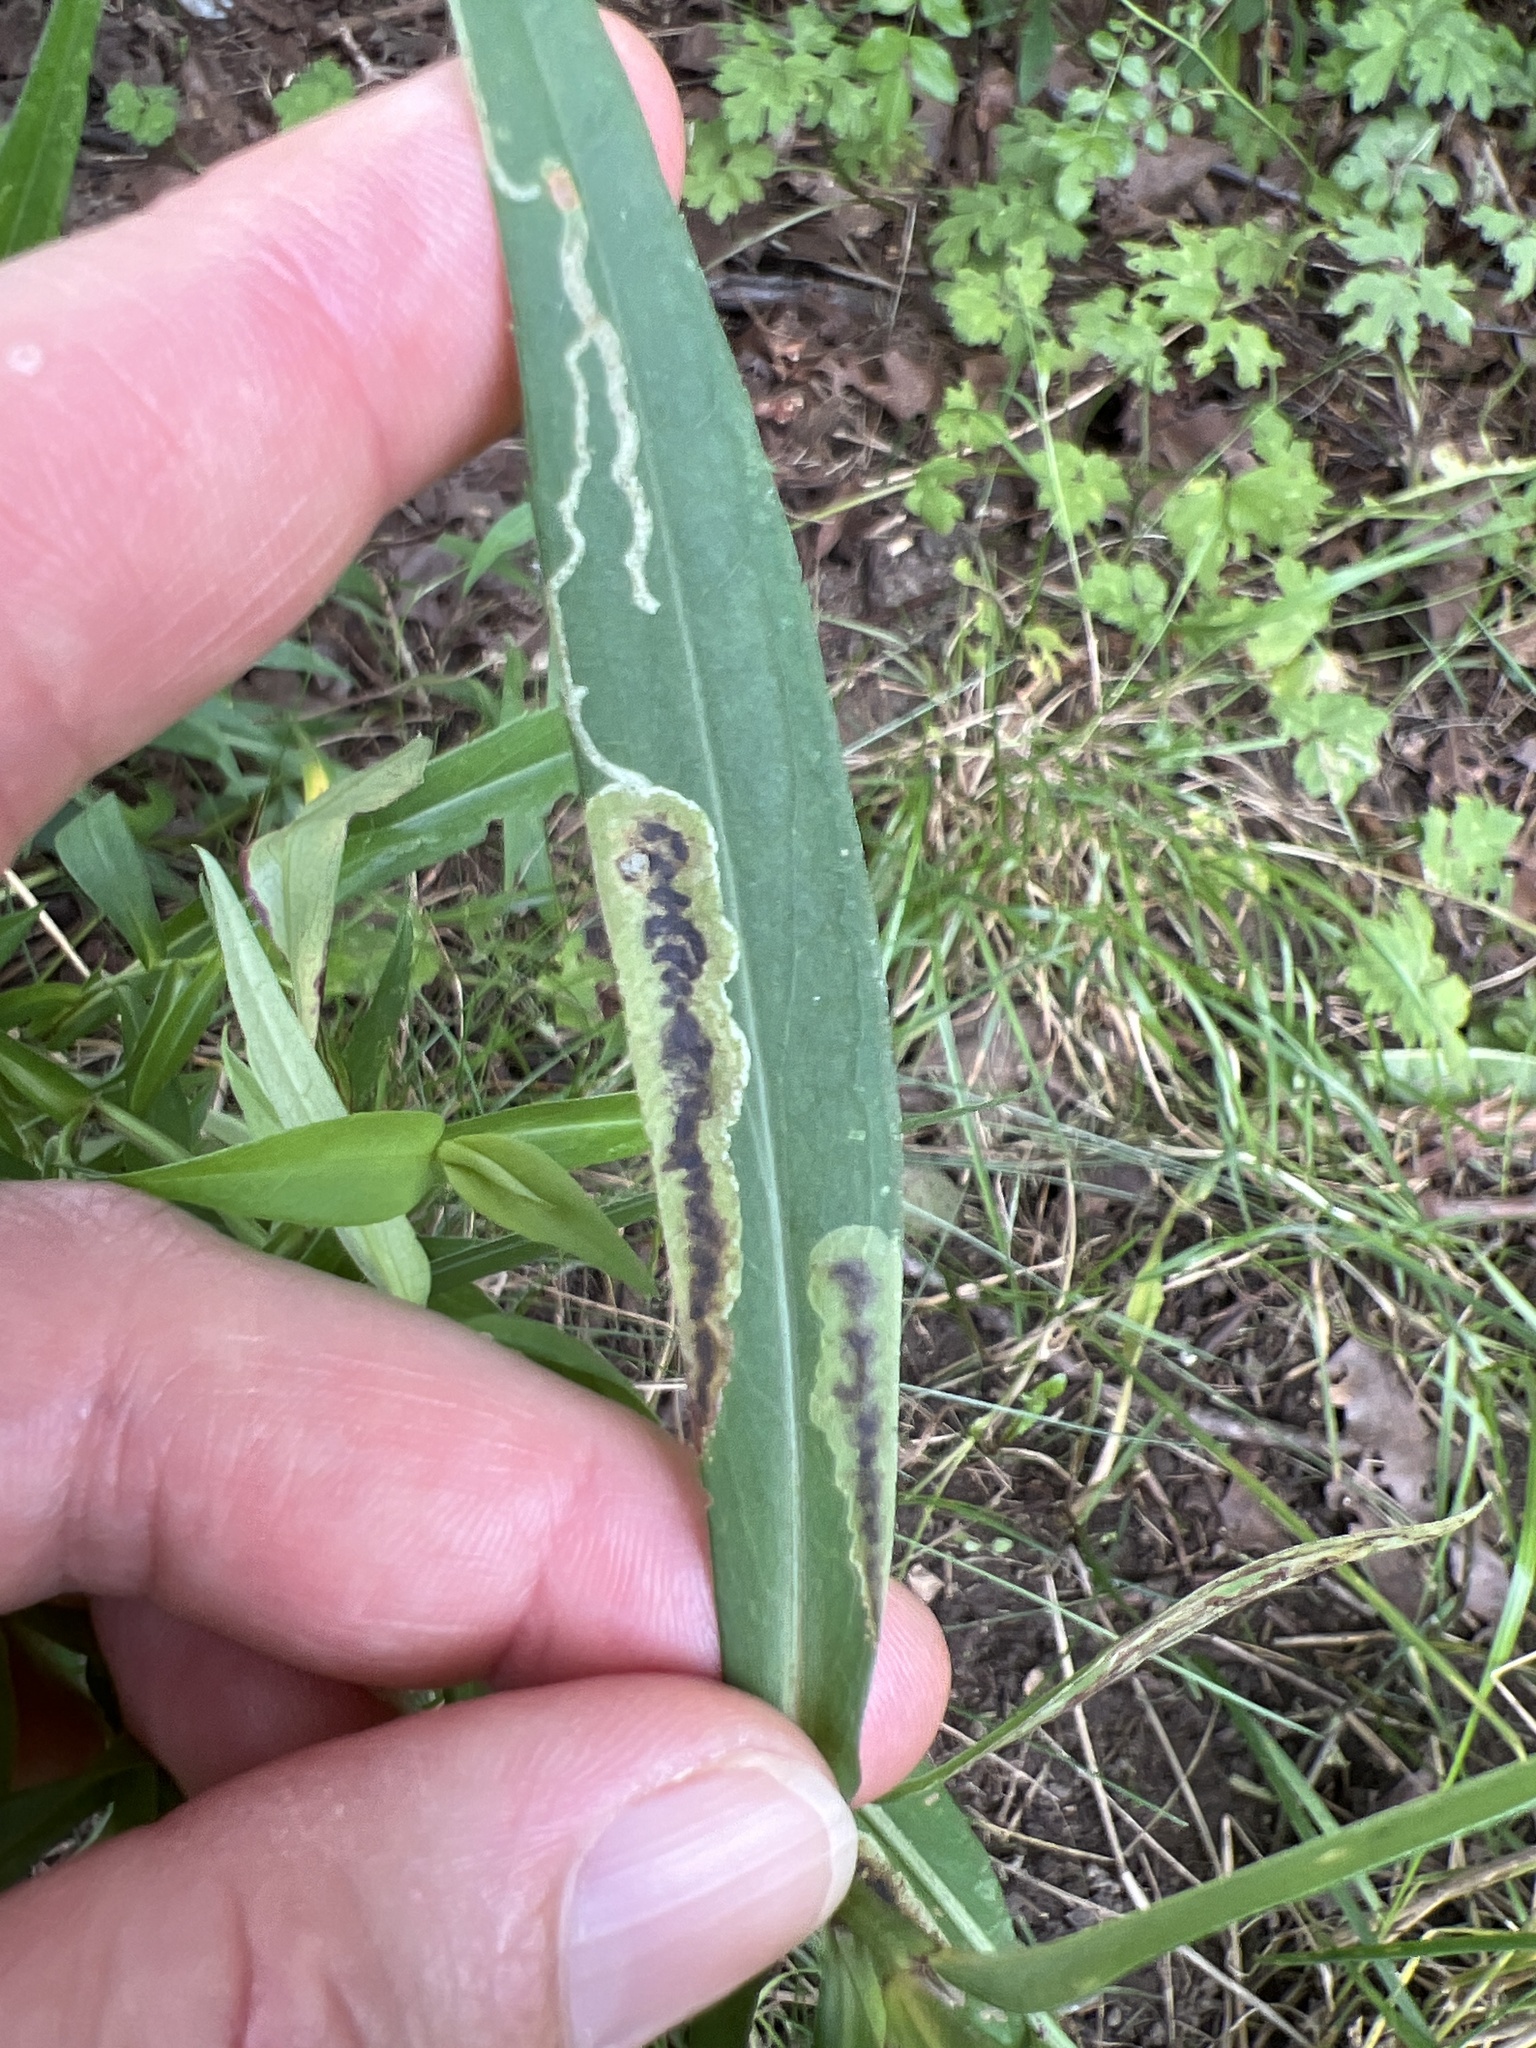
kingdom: Animalia
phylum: Arthropoda
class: Insecta
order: Diptera
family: Agromyzidae
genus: Nemorimyza
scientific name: Nemorimyza posticata
